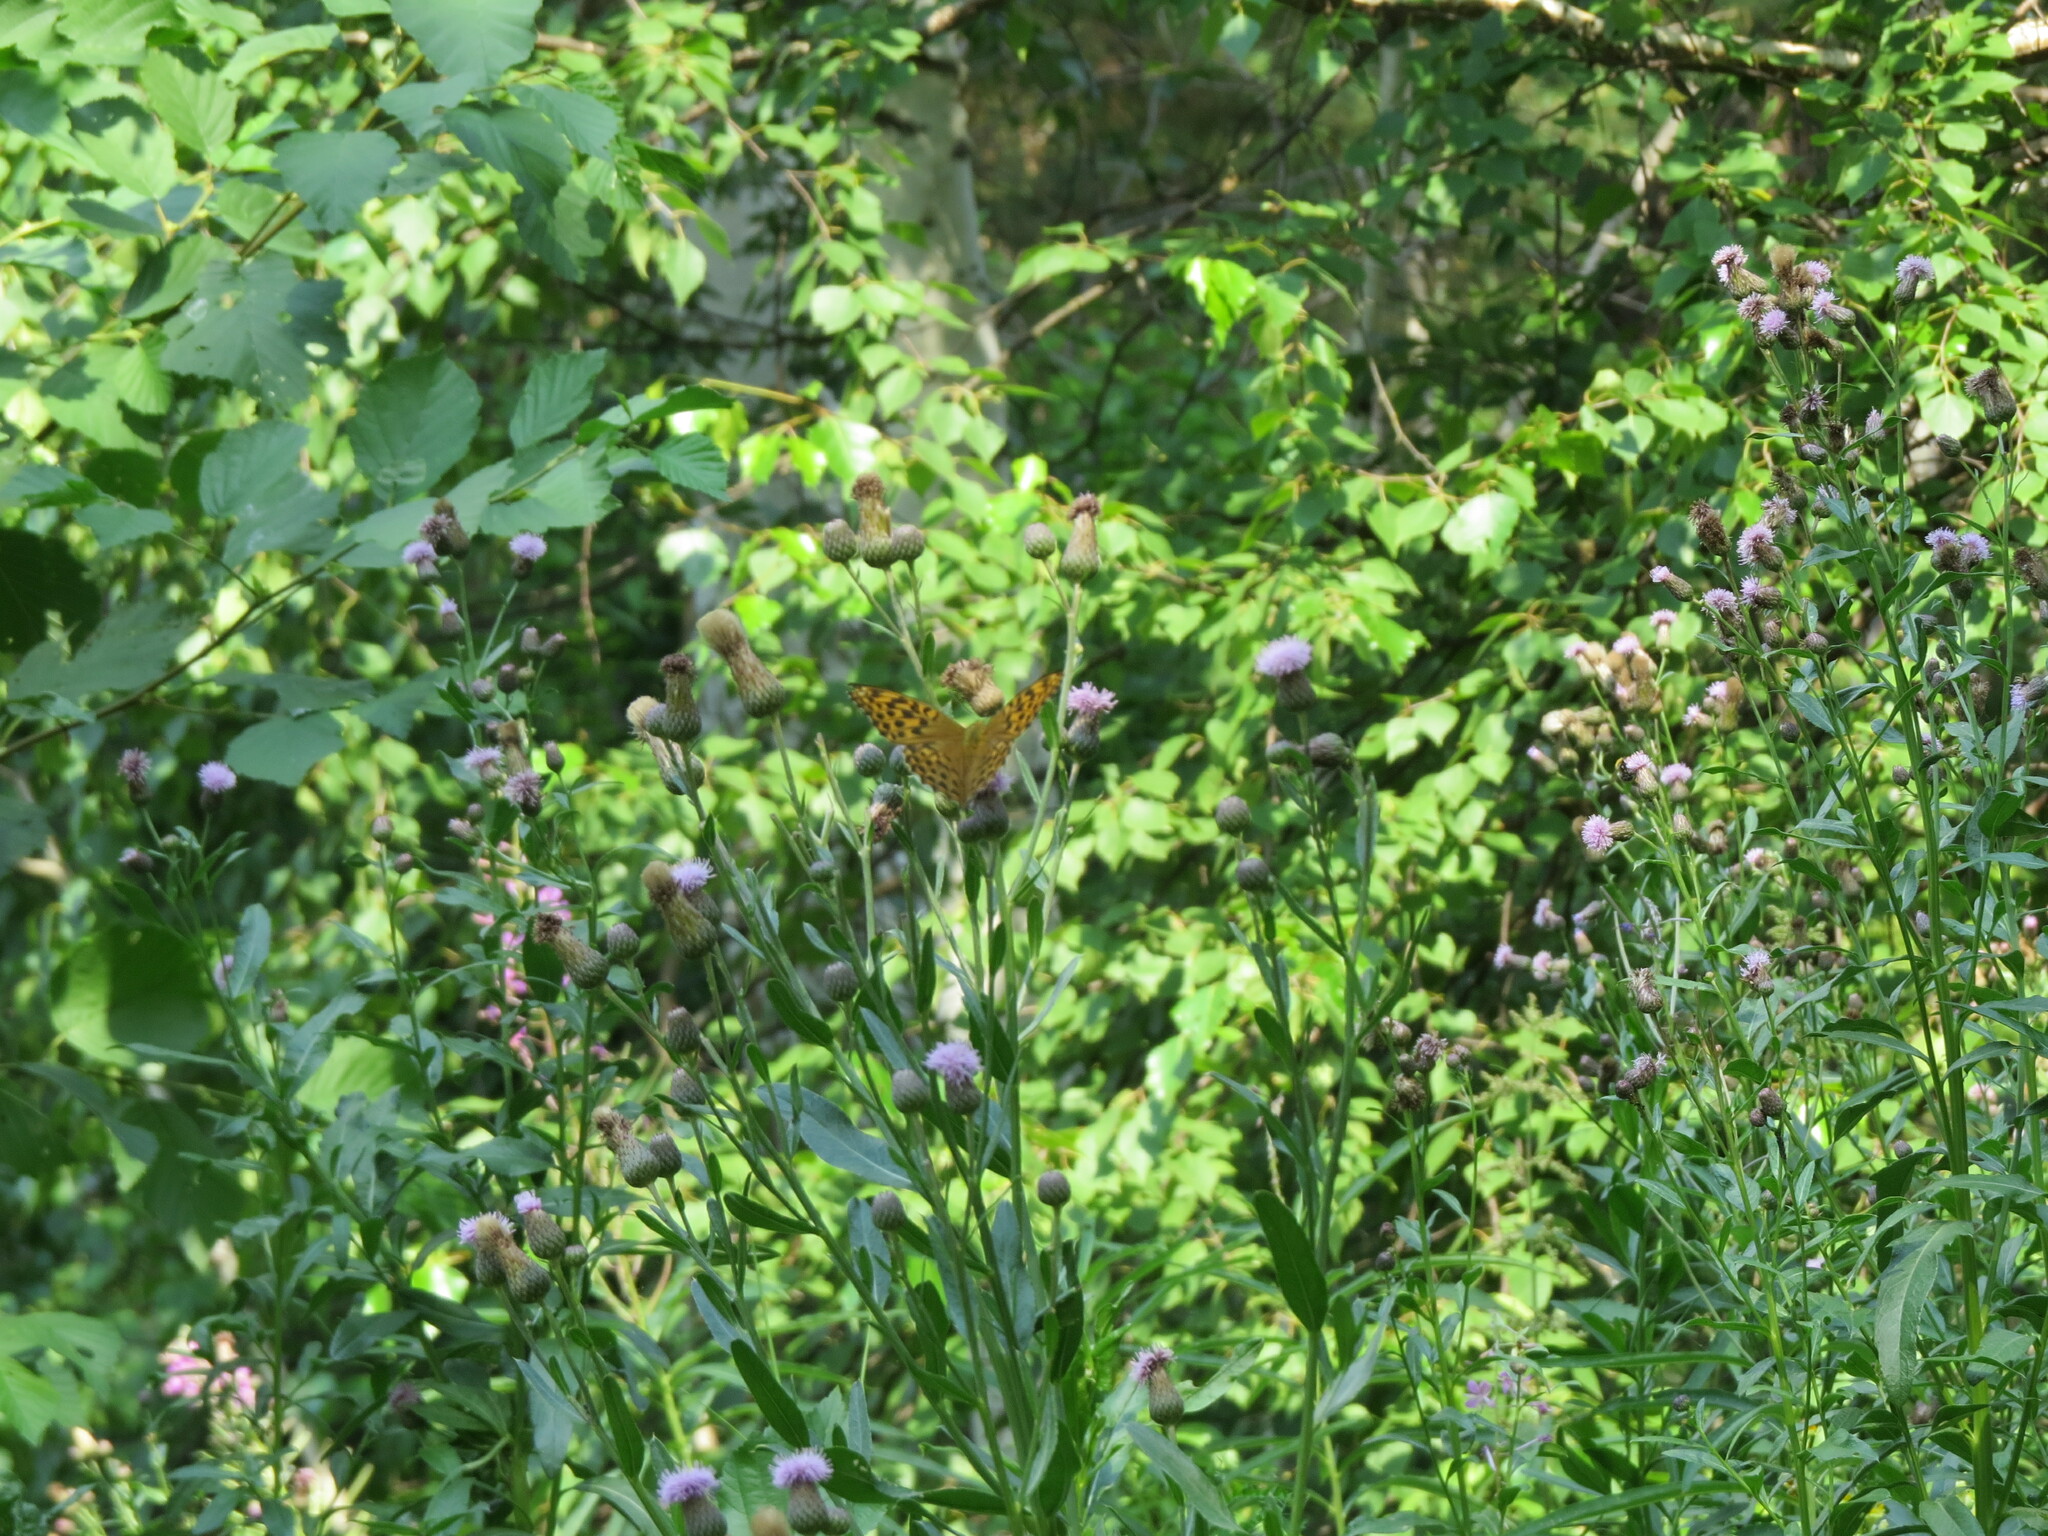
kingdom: Animalia
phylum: Arthropoda
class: Insecta
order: Lepidoptera
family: Nymphalidae
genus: Argynnis
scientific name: Argynnis paphia
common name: Silver-washed fritillary
